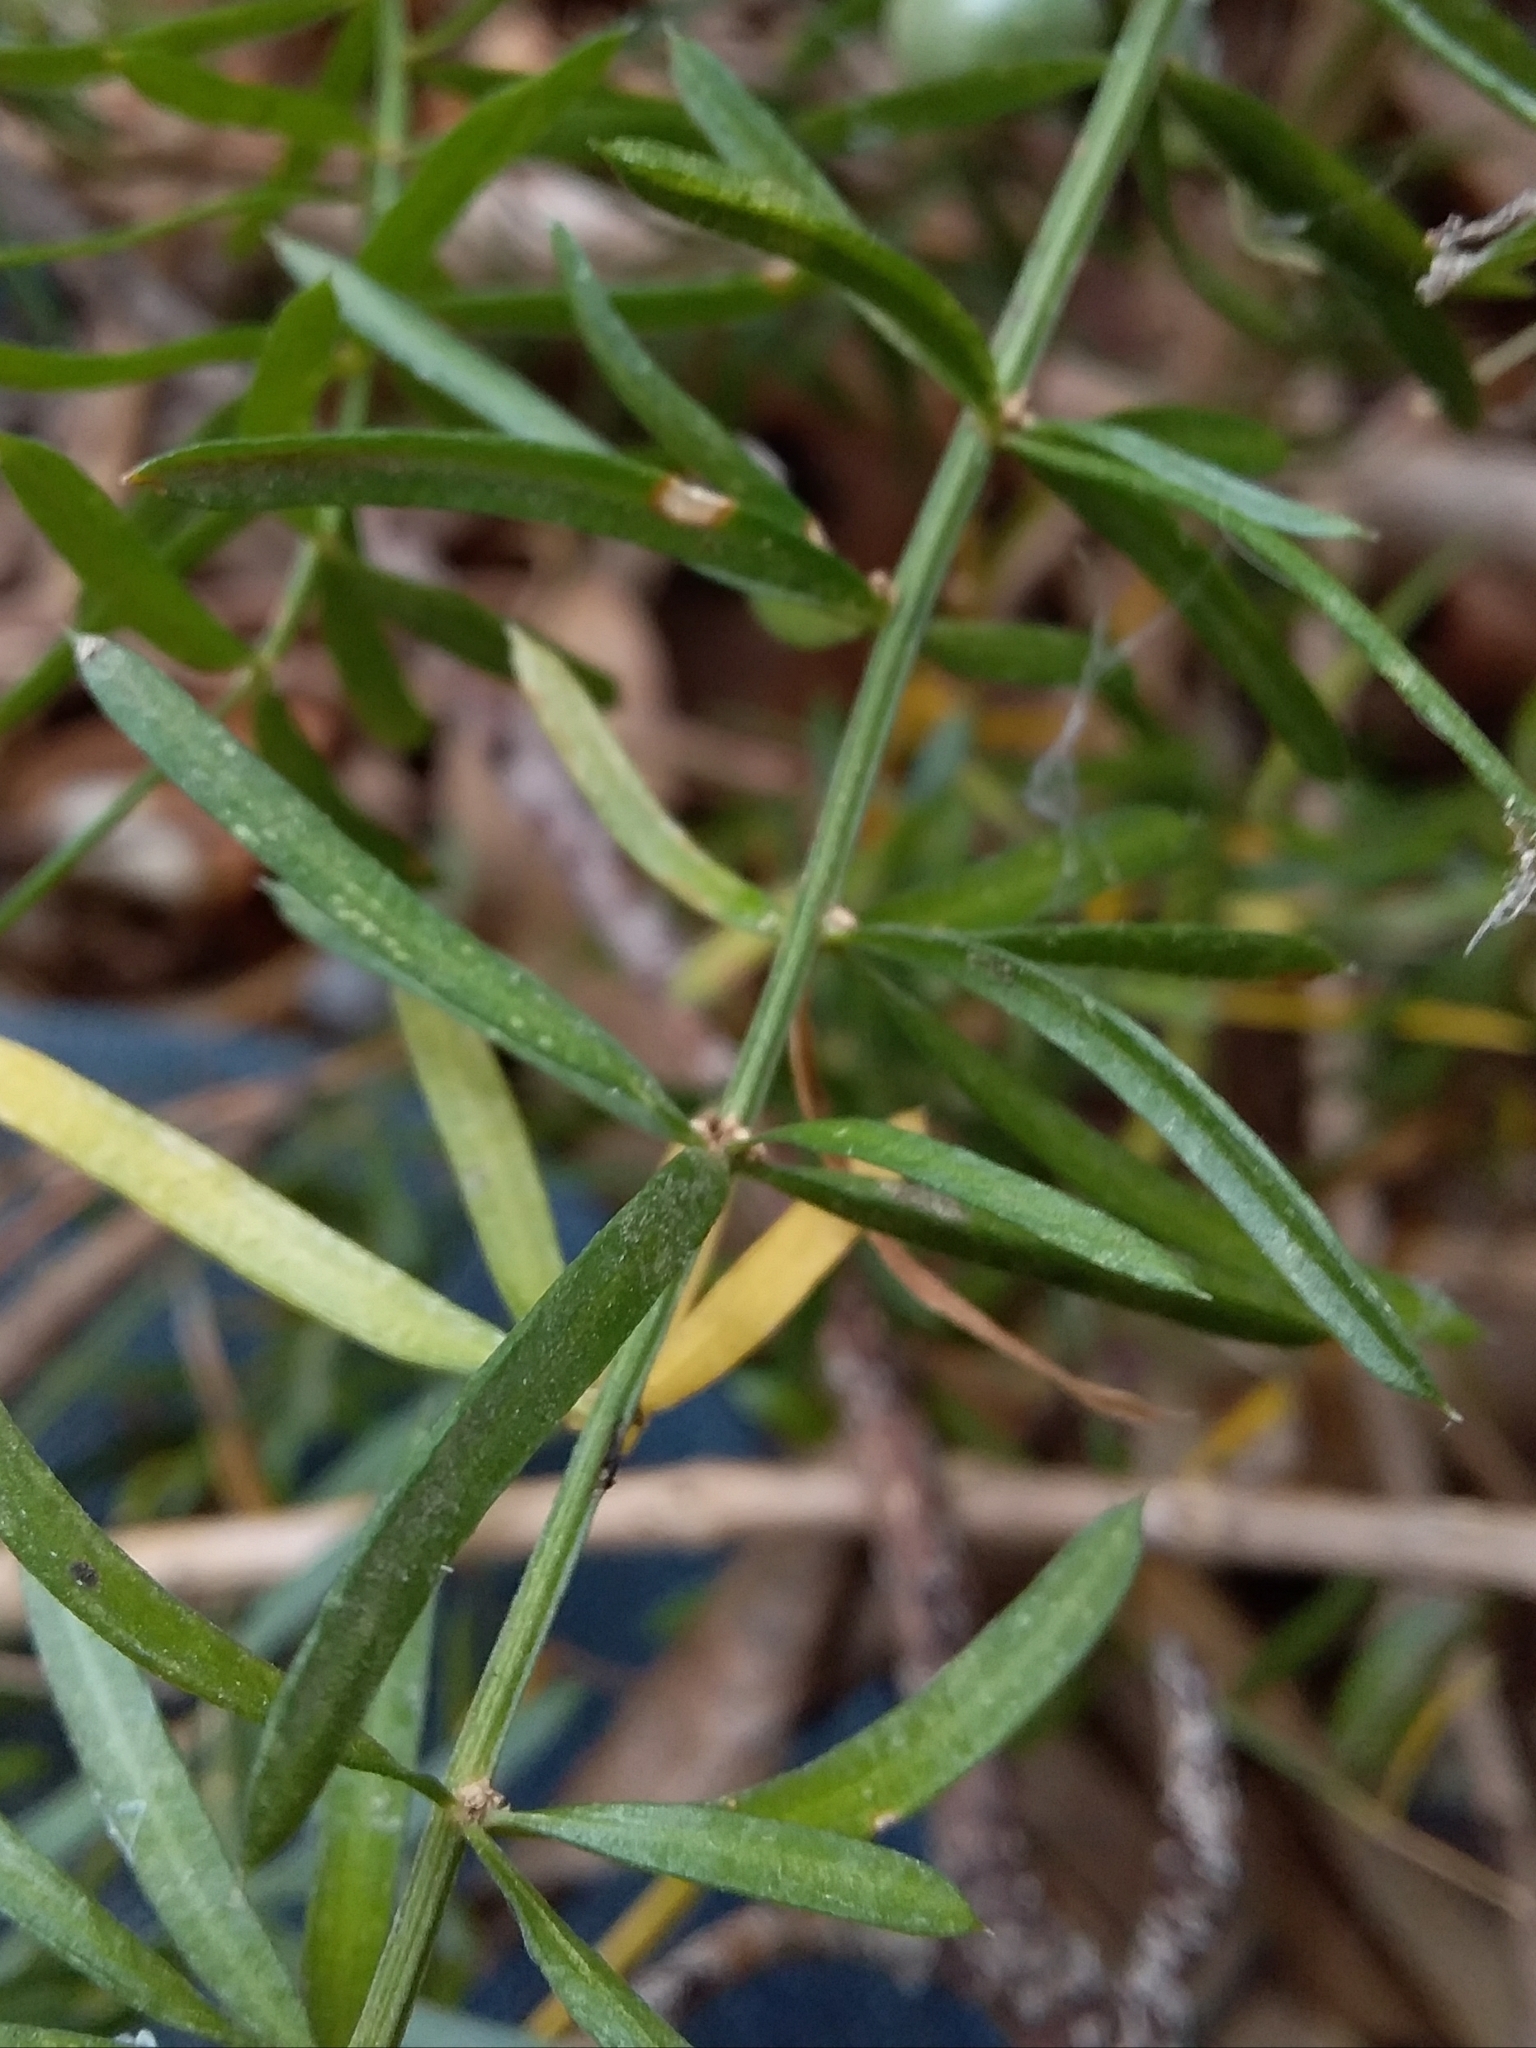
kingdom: Plantae
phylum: Tracheophyta
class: Liliopsida
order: Asparagales
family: Asparagaceae
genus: Asparagus
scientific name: Asparagus aethiopicus
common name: Sprenger's asparagus fern
